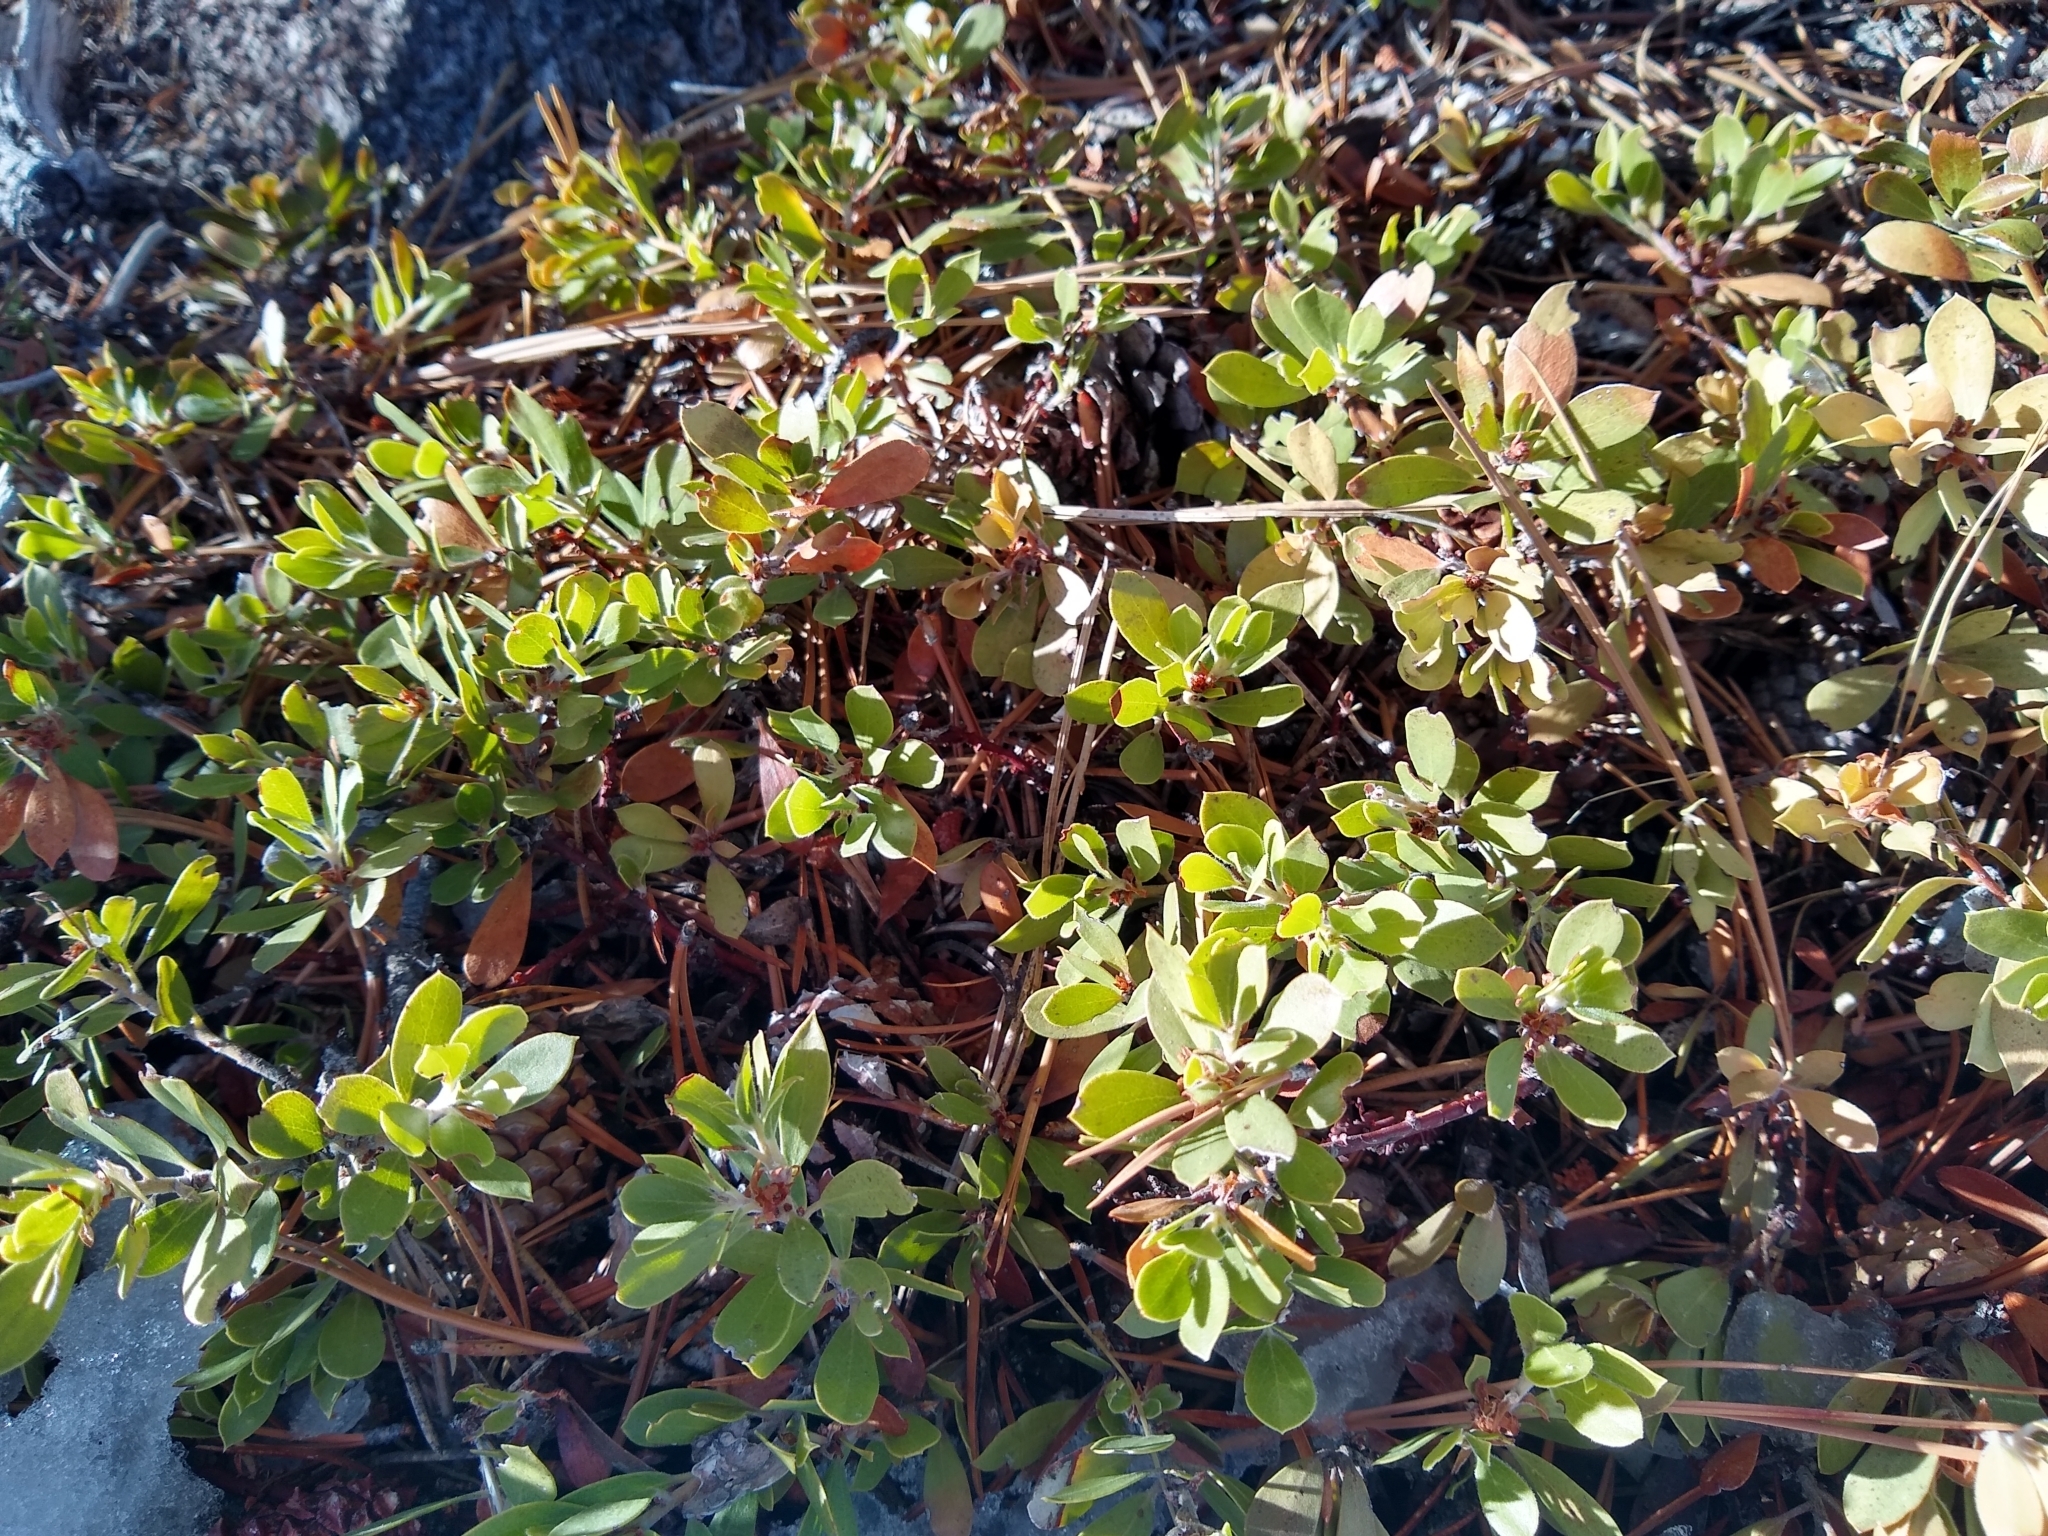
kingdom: Plantae
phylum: Tracheophyta
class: Magnoliopsida
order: Ericales
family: Ericaceae
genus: Arctostaphylos
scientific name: Arctostaphylos nevadensis
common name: Pinemat manzanita
